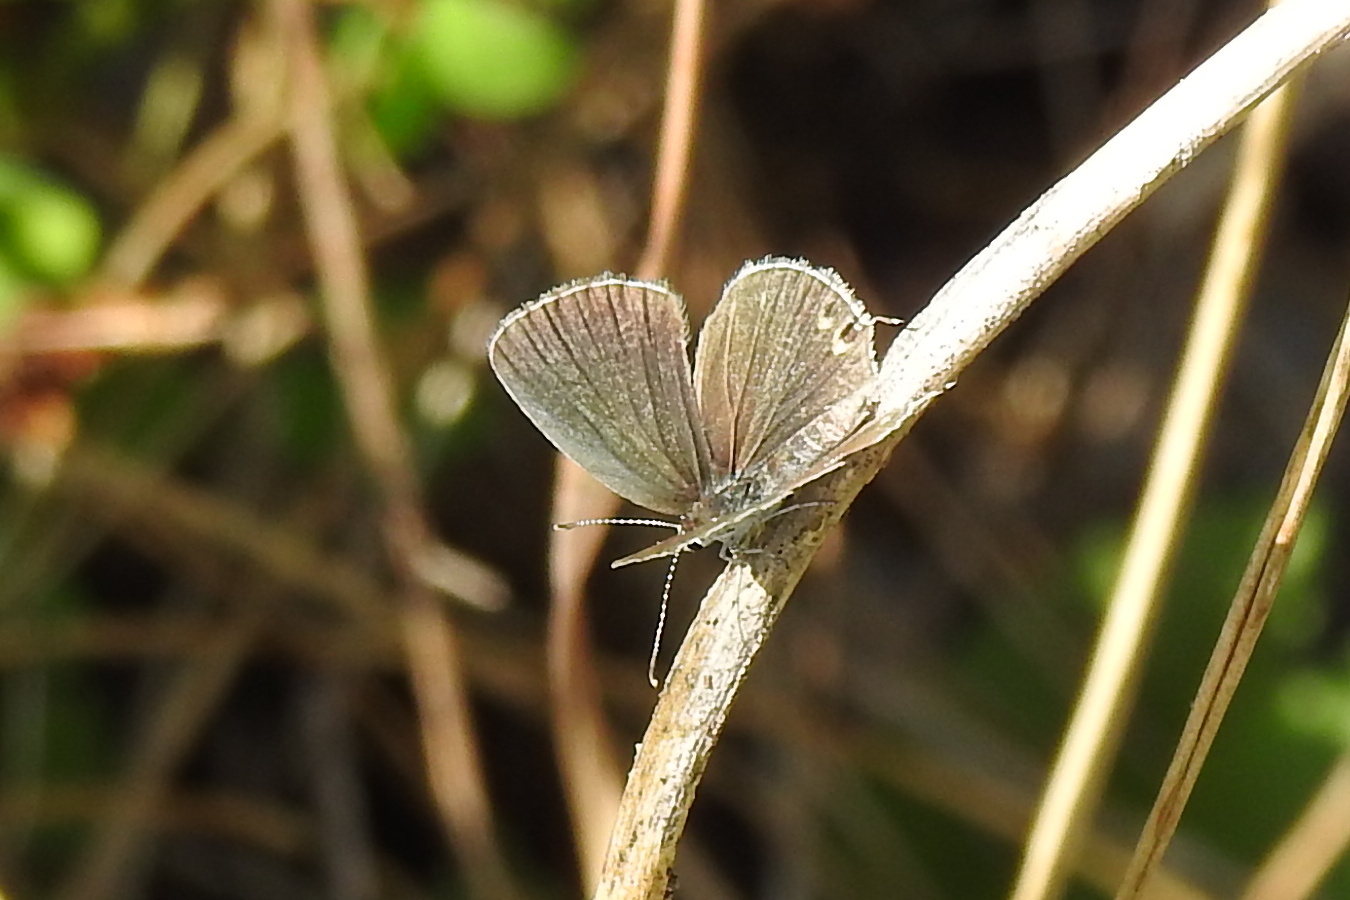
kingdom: Animalia
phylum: Arthropoda
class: Insecta
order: Lepidoptera
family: Lycaenidae
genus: Elkalyce
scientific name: Elkalyce comyntas
